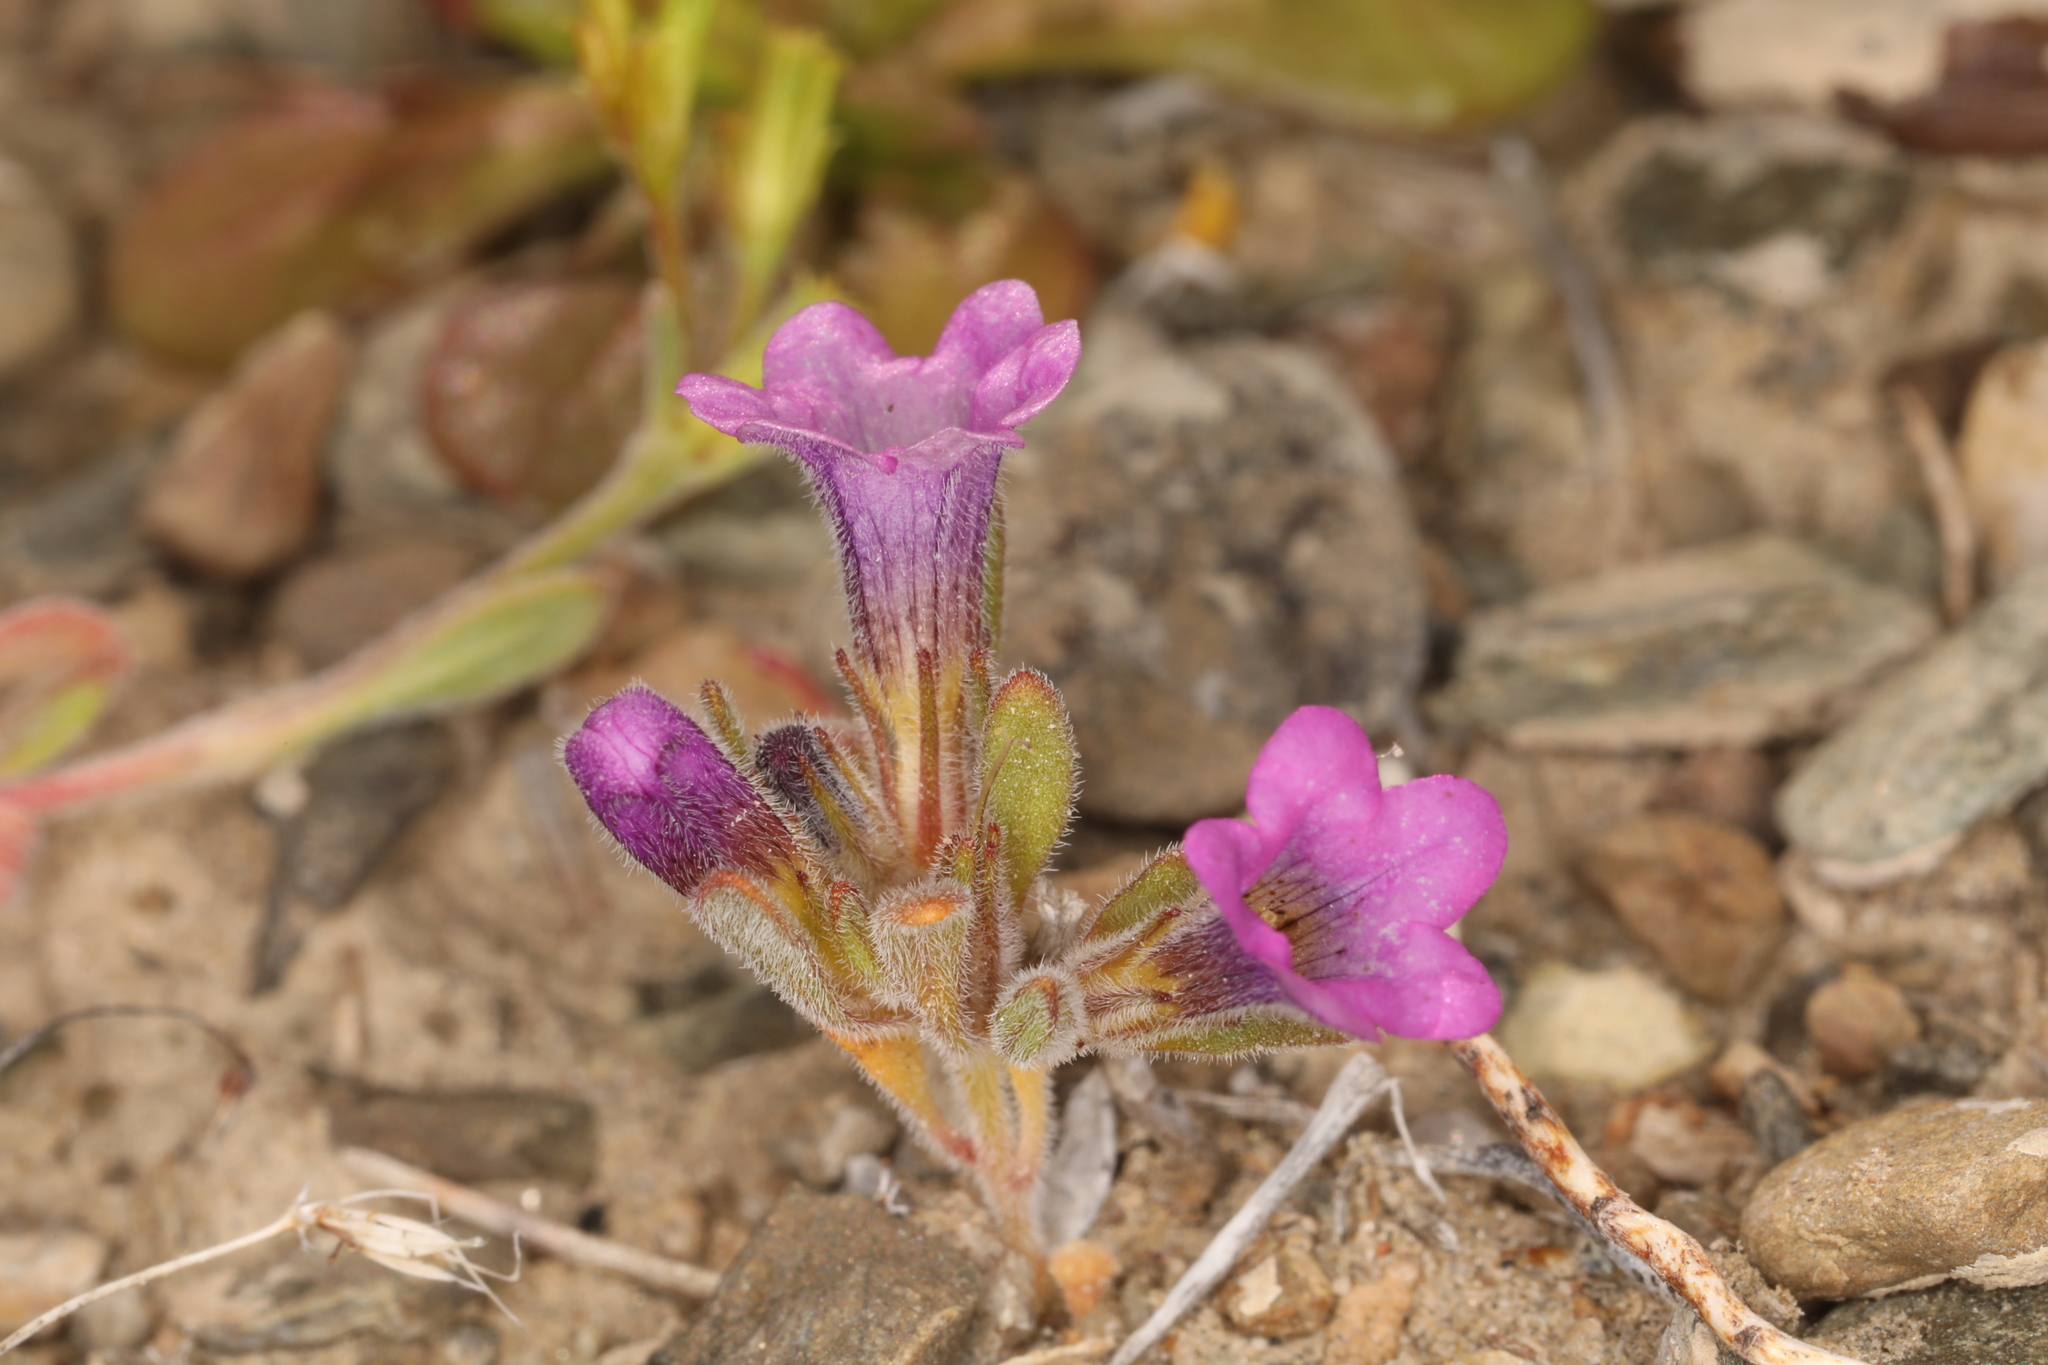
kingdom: Plantae
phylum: Tracheophyta
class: Magnoliopsida
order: Boraginales
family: Namaceae
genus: Nama
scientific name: Nama demissa
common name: Leafy nama
